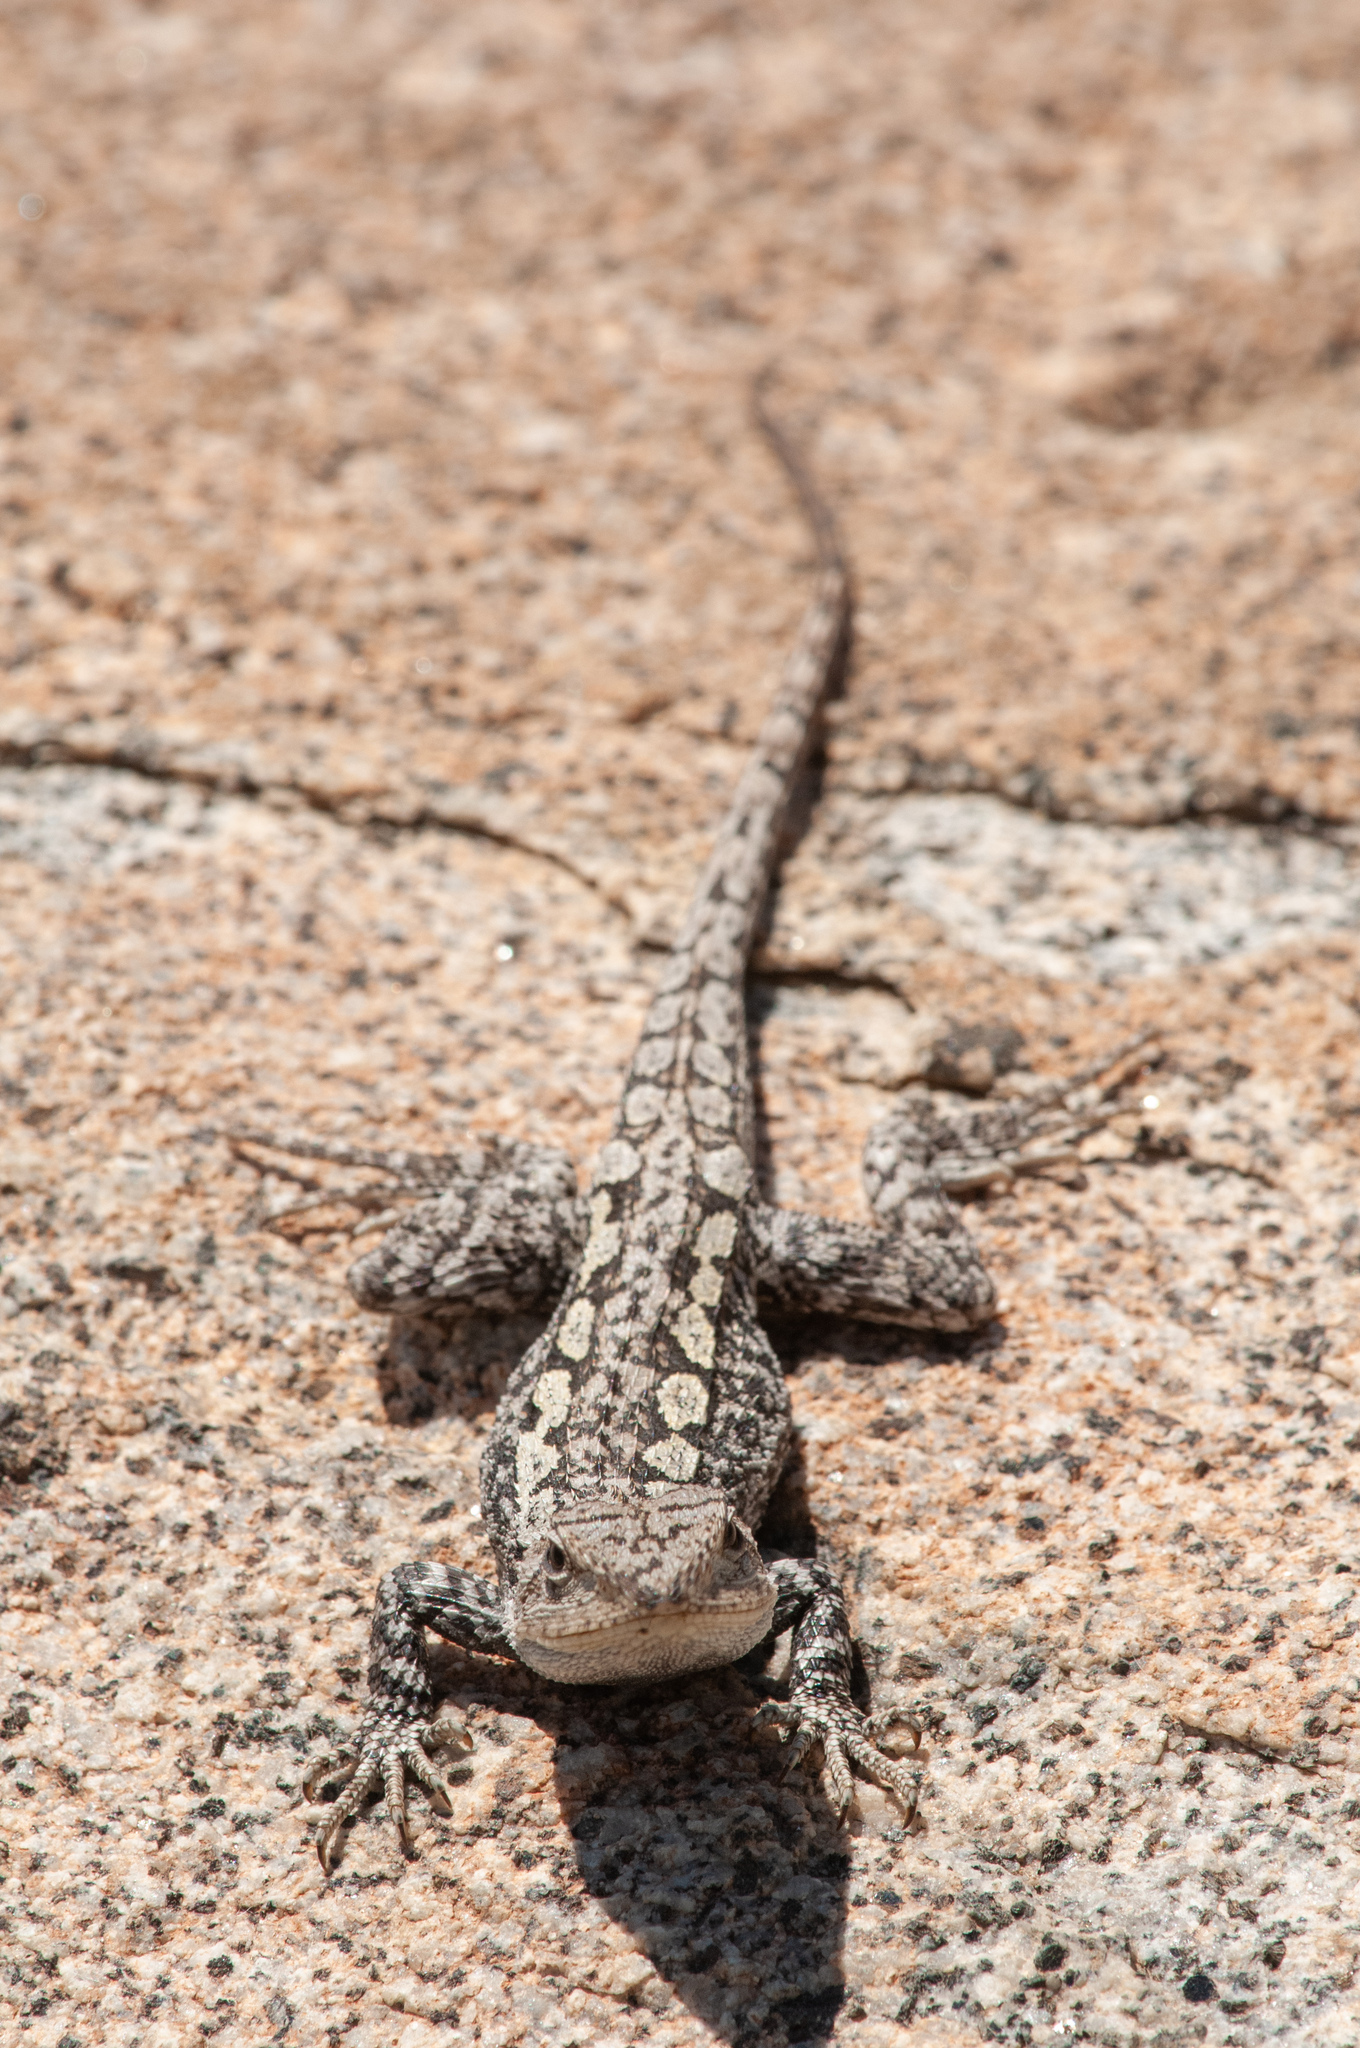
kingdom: Animalia
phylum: Chordata
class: Squamata
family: Agamidae
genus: Amphibolurus
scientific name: Amphibolurus muricatus
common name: Jacky lizard
